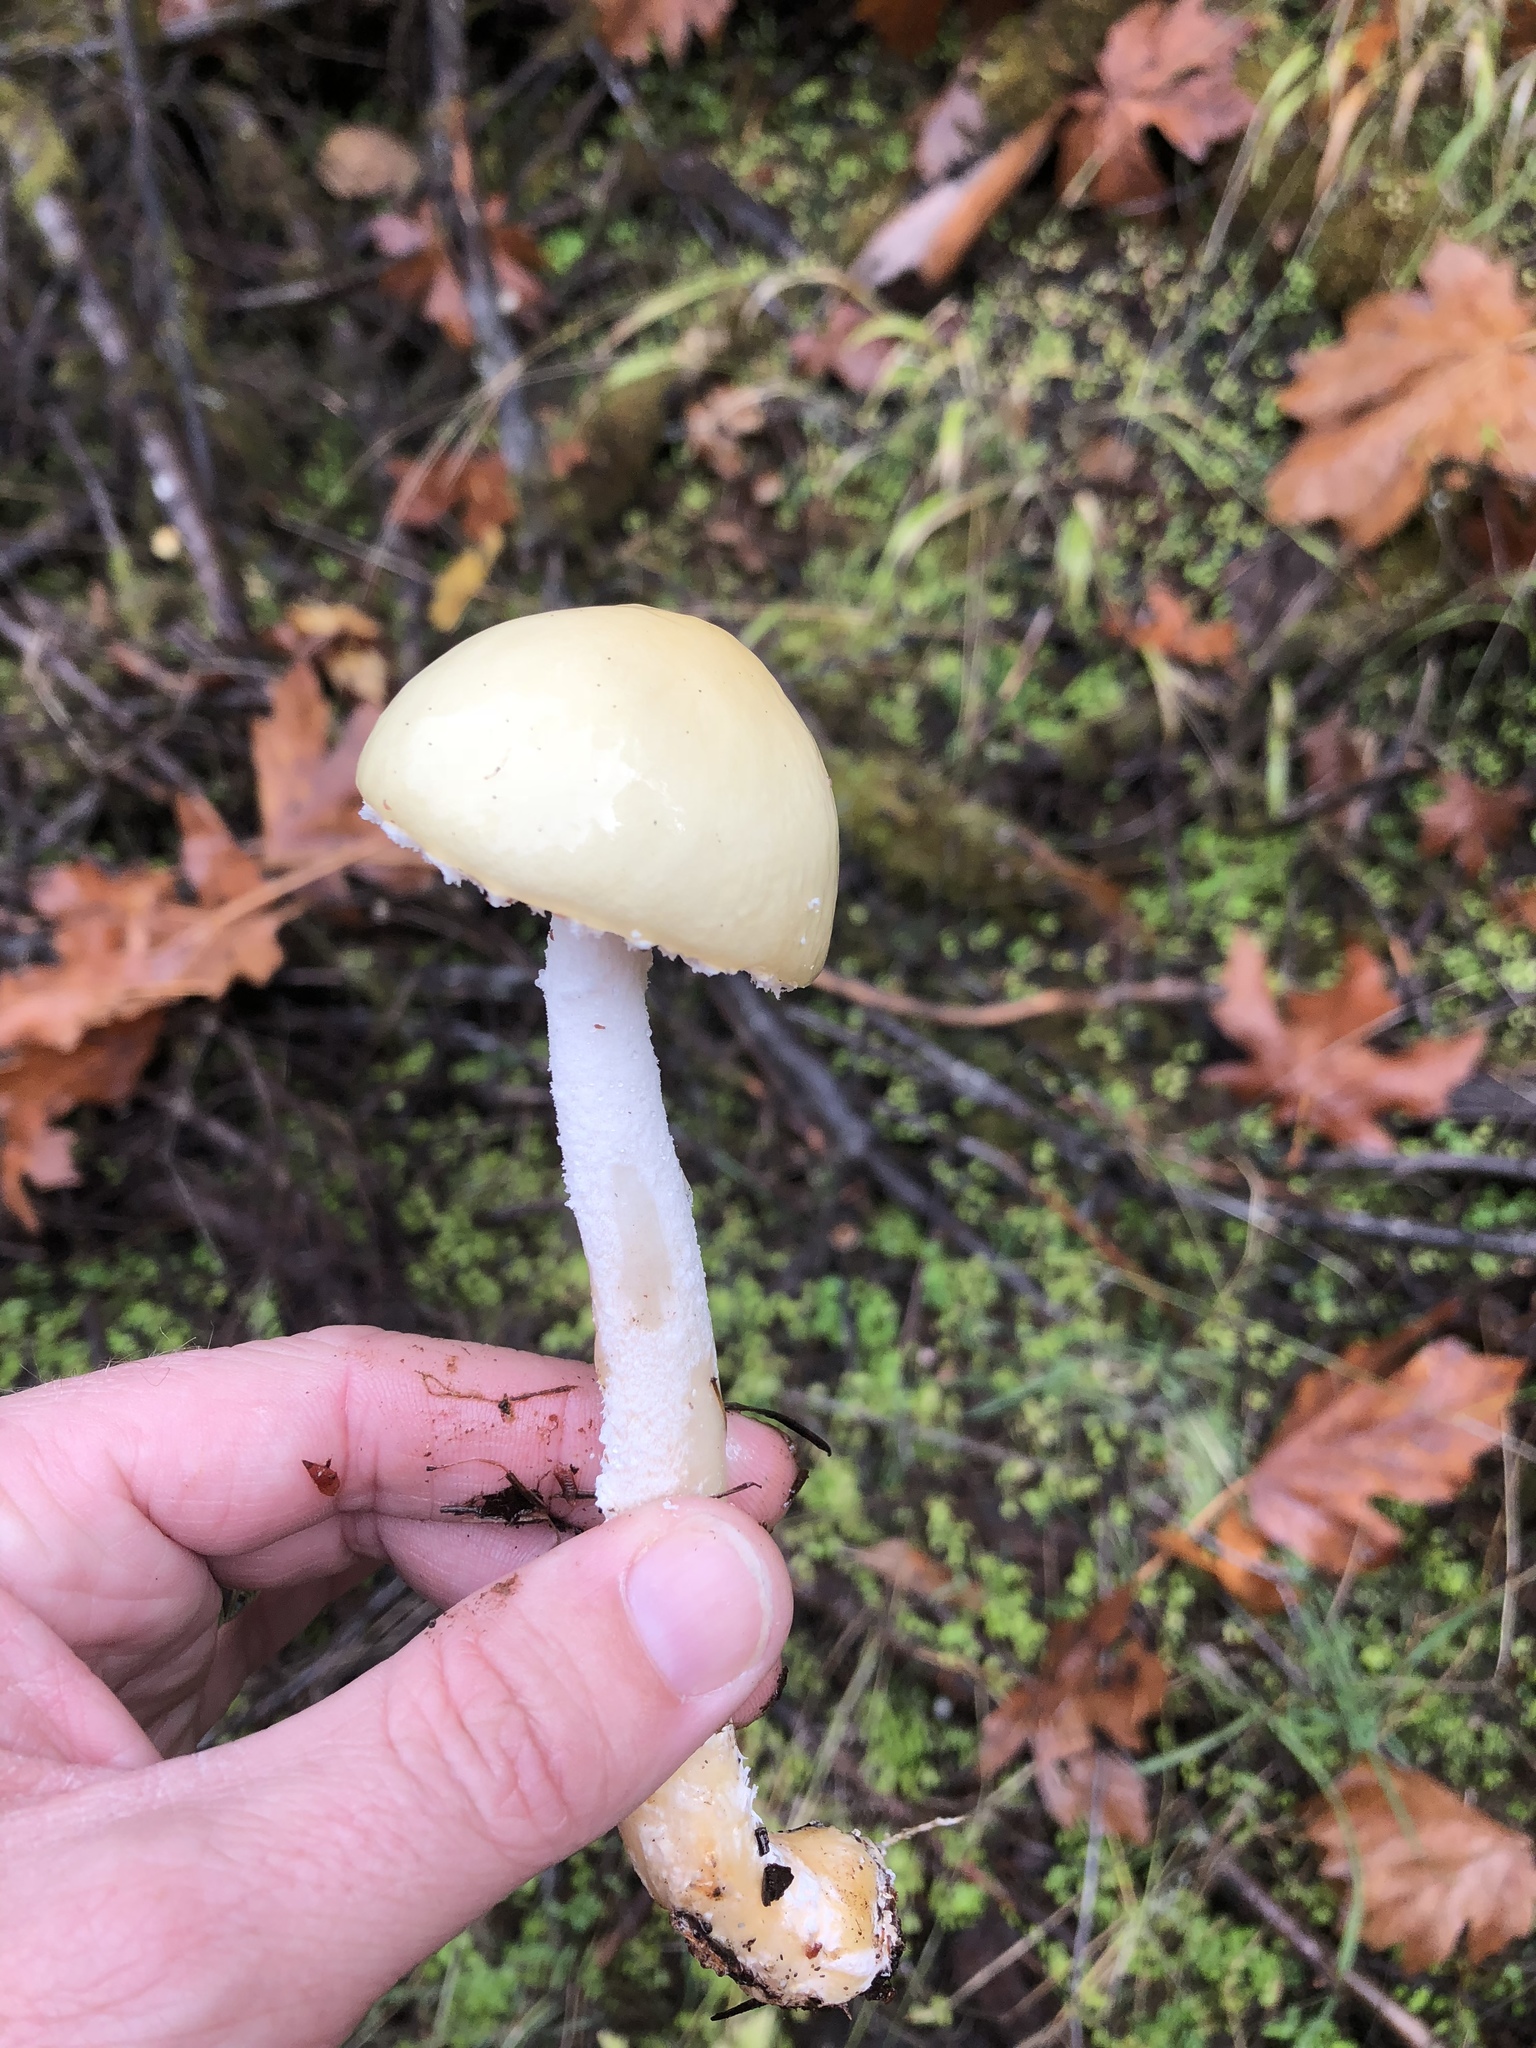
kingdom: Fungi
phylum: Basidiomycota
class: Agaricomycetes
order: Agaricales
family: Strophariaceae
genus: Stropharia
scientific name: Stropharia ambigua
